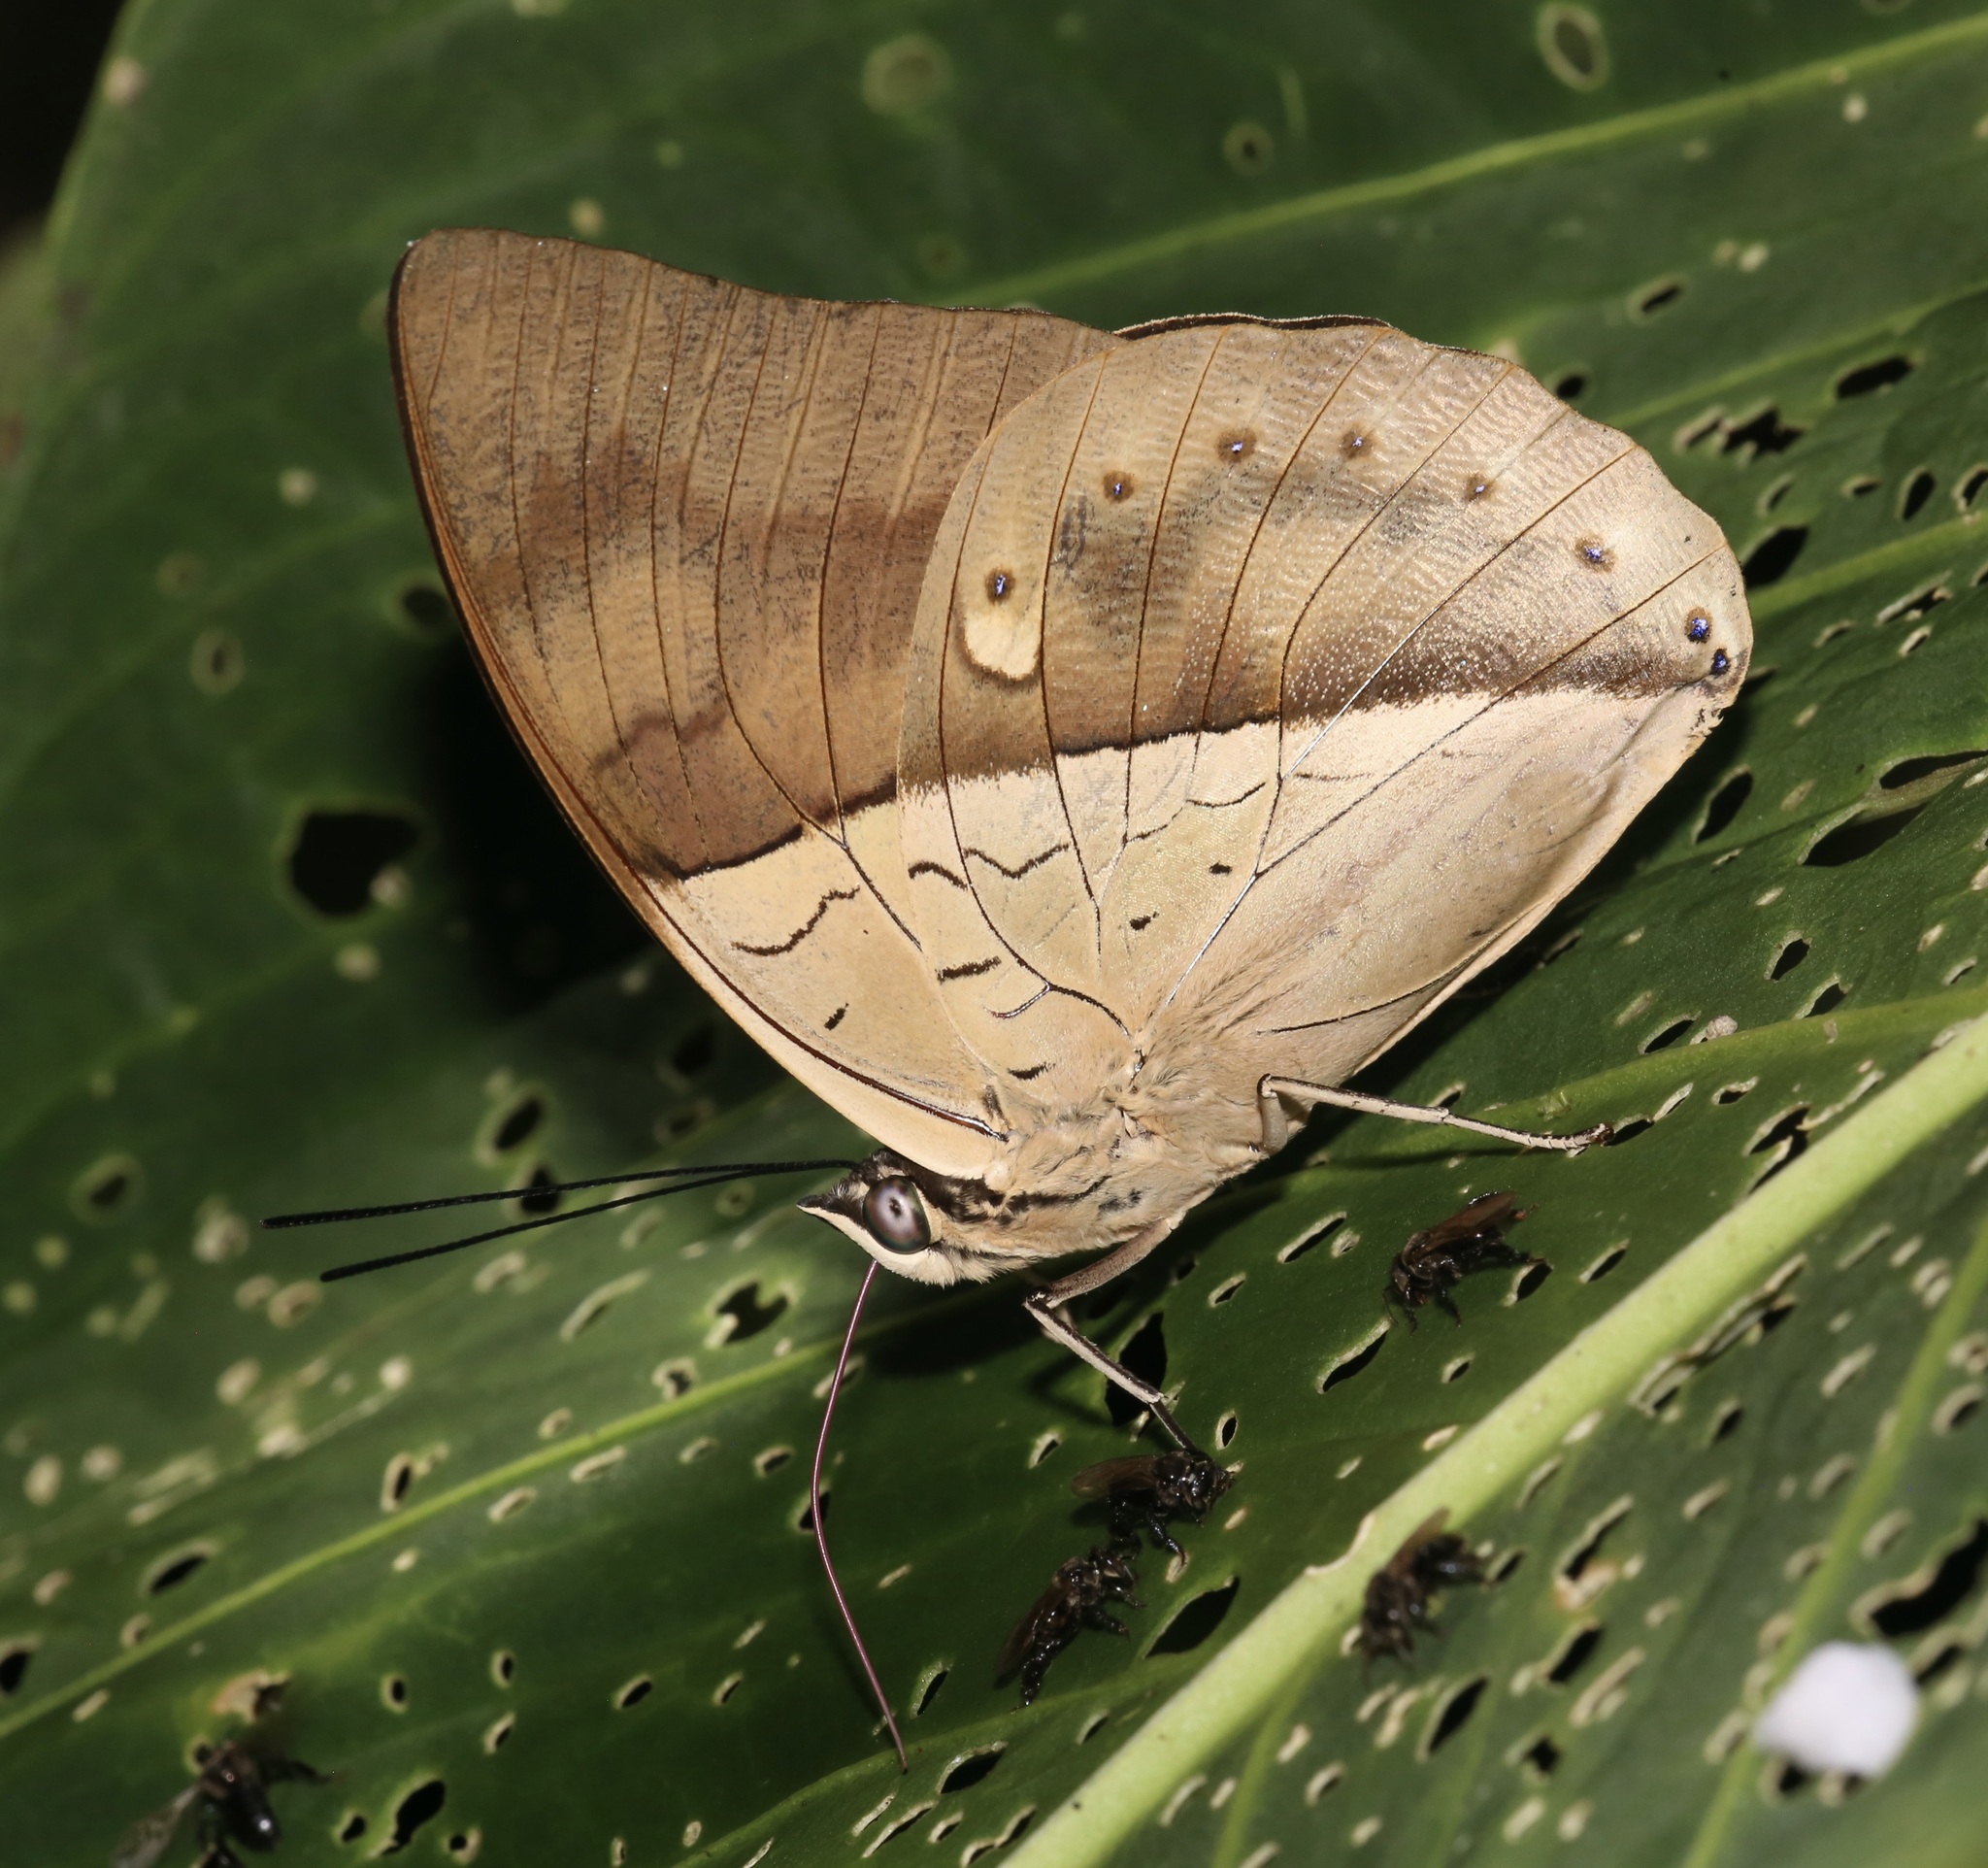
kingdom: Animalia
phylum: Arthropoda
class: Insecta
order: Lepidoptera
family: Nymphalidae
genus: Prepona
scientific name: Prepona meander
